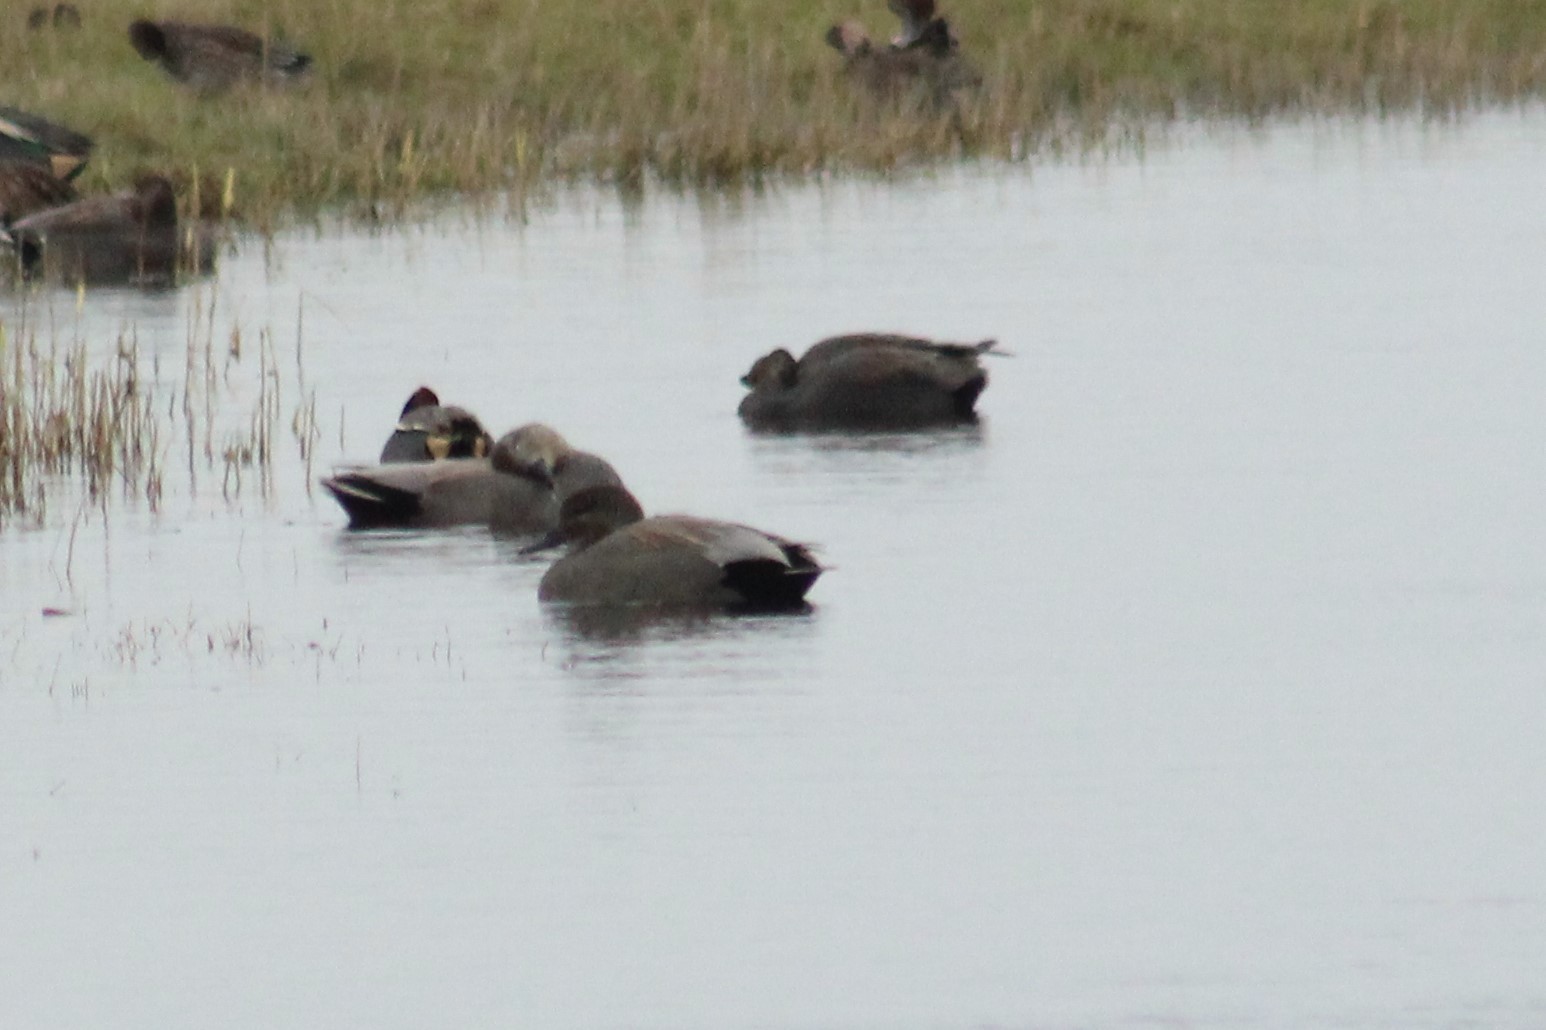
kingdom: Animalia
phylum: Chordata
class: Aves
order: Anseriformes
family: Anatidae
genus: Mareca
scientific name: Mareca strepera
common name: Gadwall
